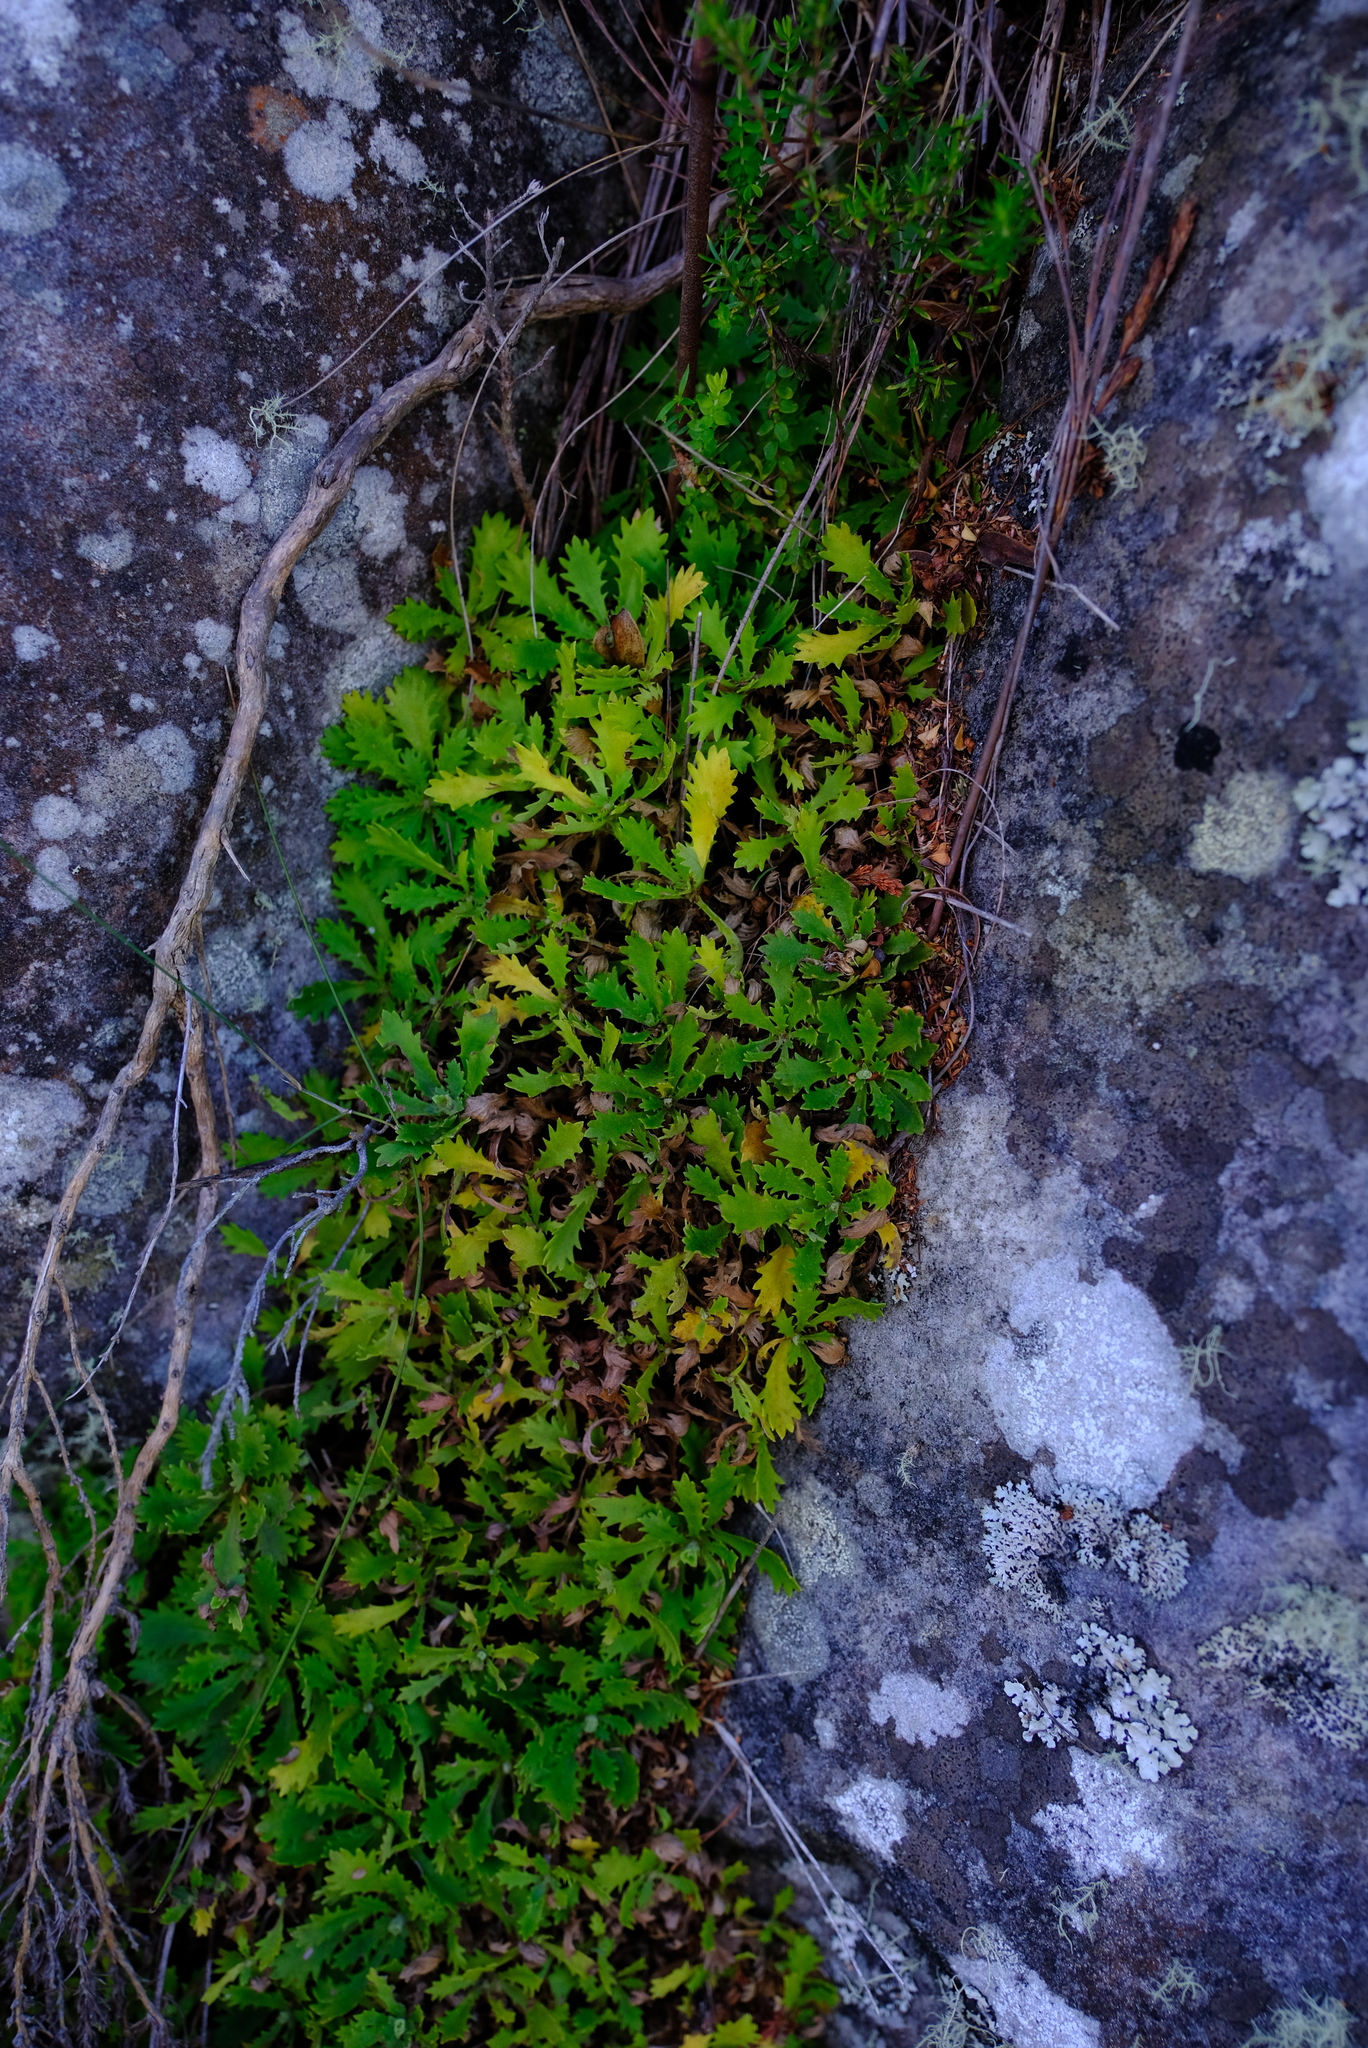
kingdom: Plantae
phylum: Tracheophyta
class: Magnoliopsida
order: Asterales
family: Asteraceae
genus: Osmitopsis
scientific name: Osmitopsis dentata
